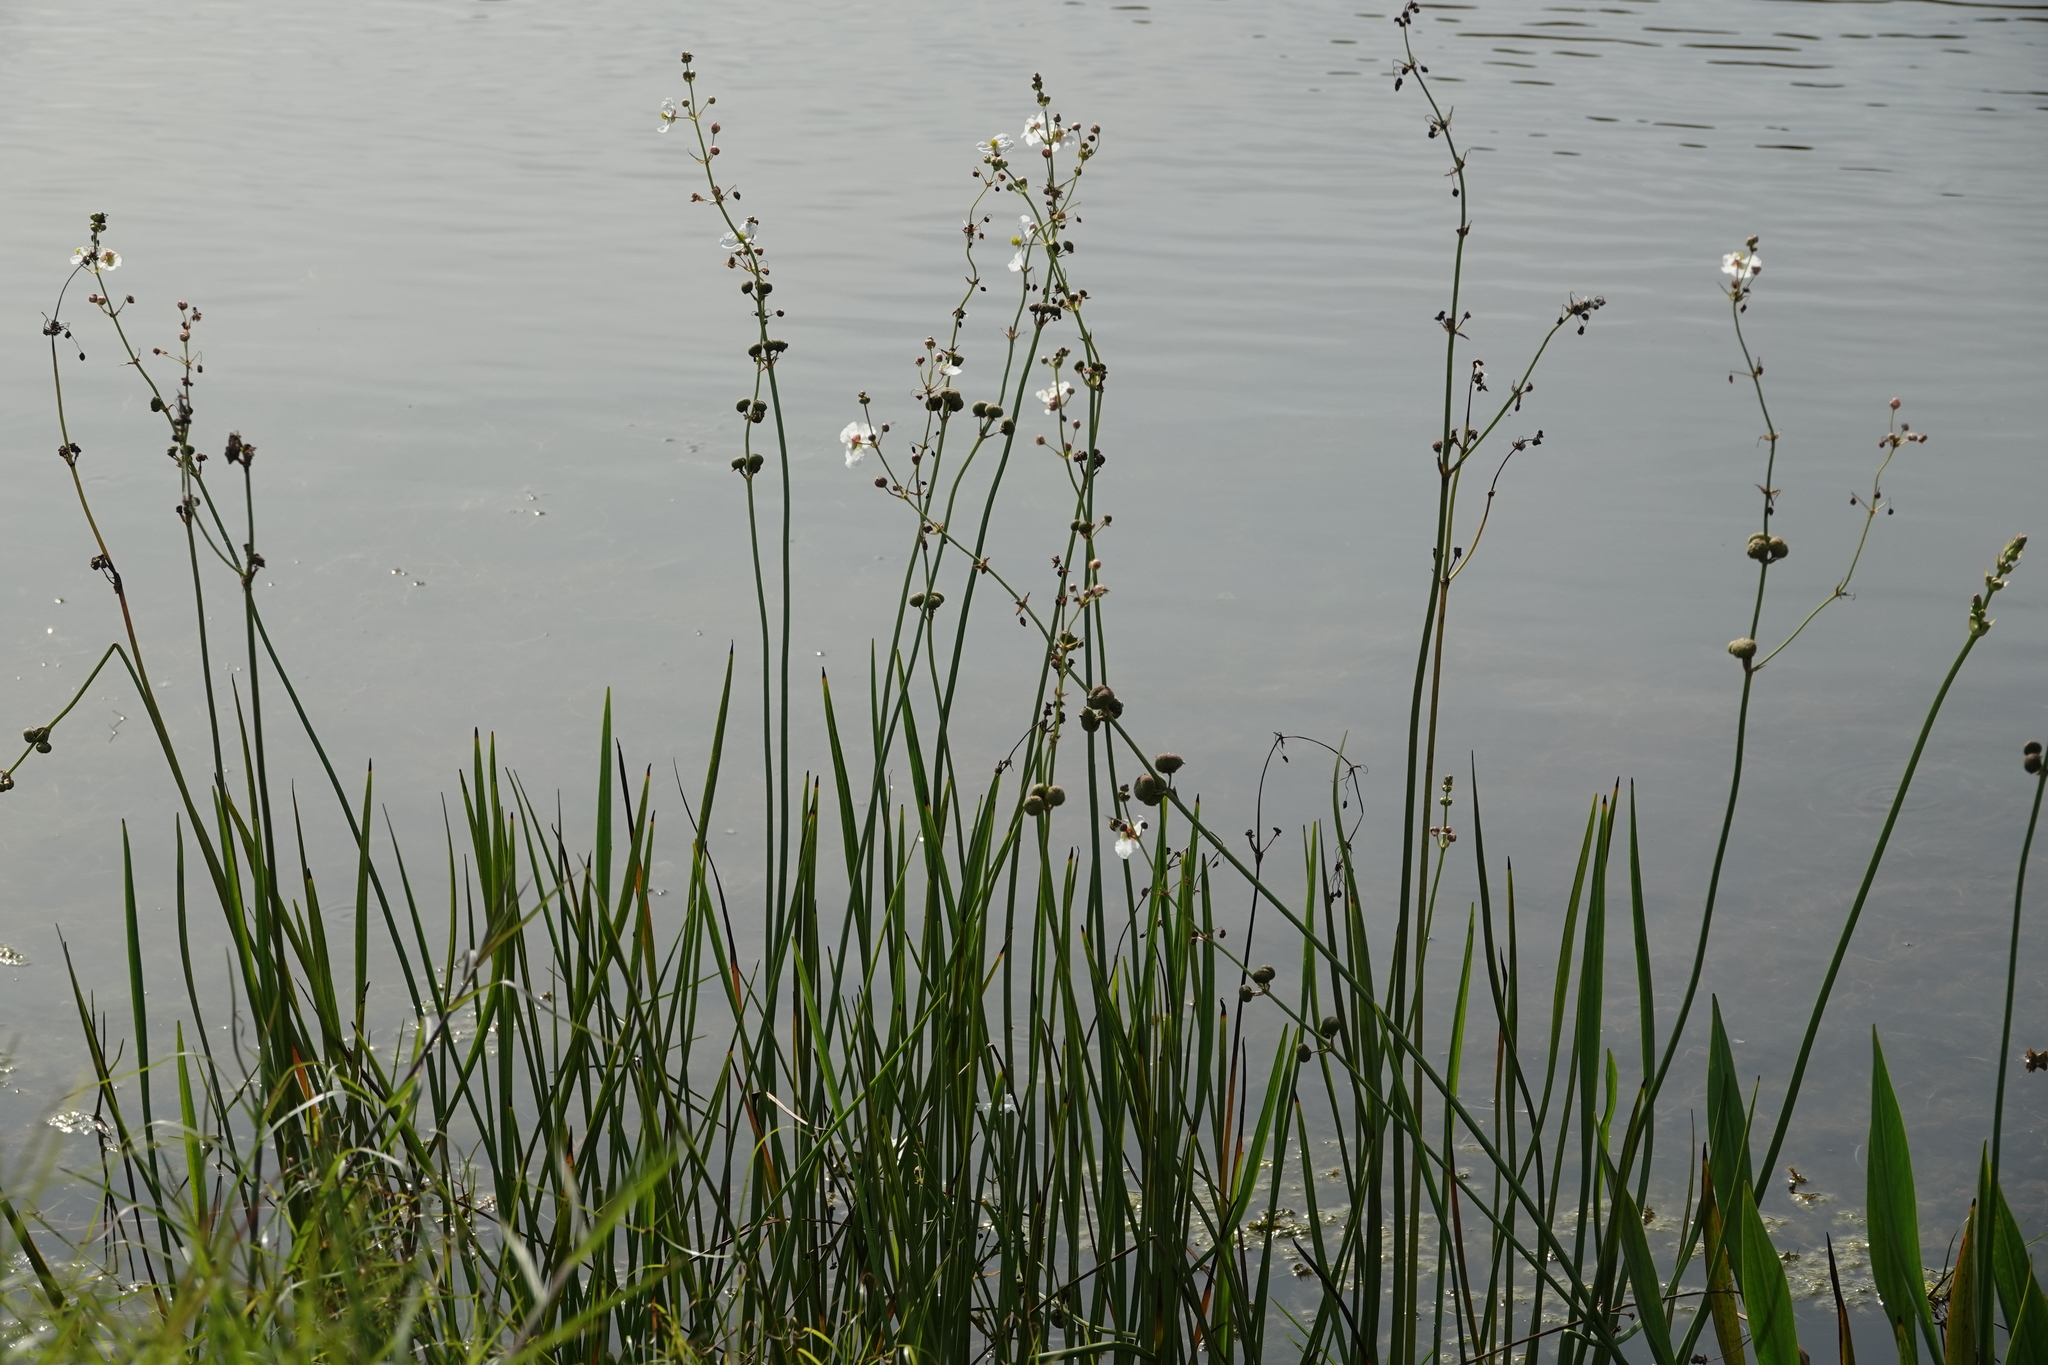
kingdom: Plantae
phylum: Tracheophyta
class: Liliopsida
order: Alismatales
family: Alismataceae
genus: Sagittaria
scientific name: Sagittaria lancifolia
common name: Lance-leaf arrowhead
